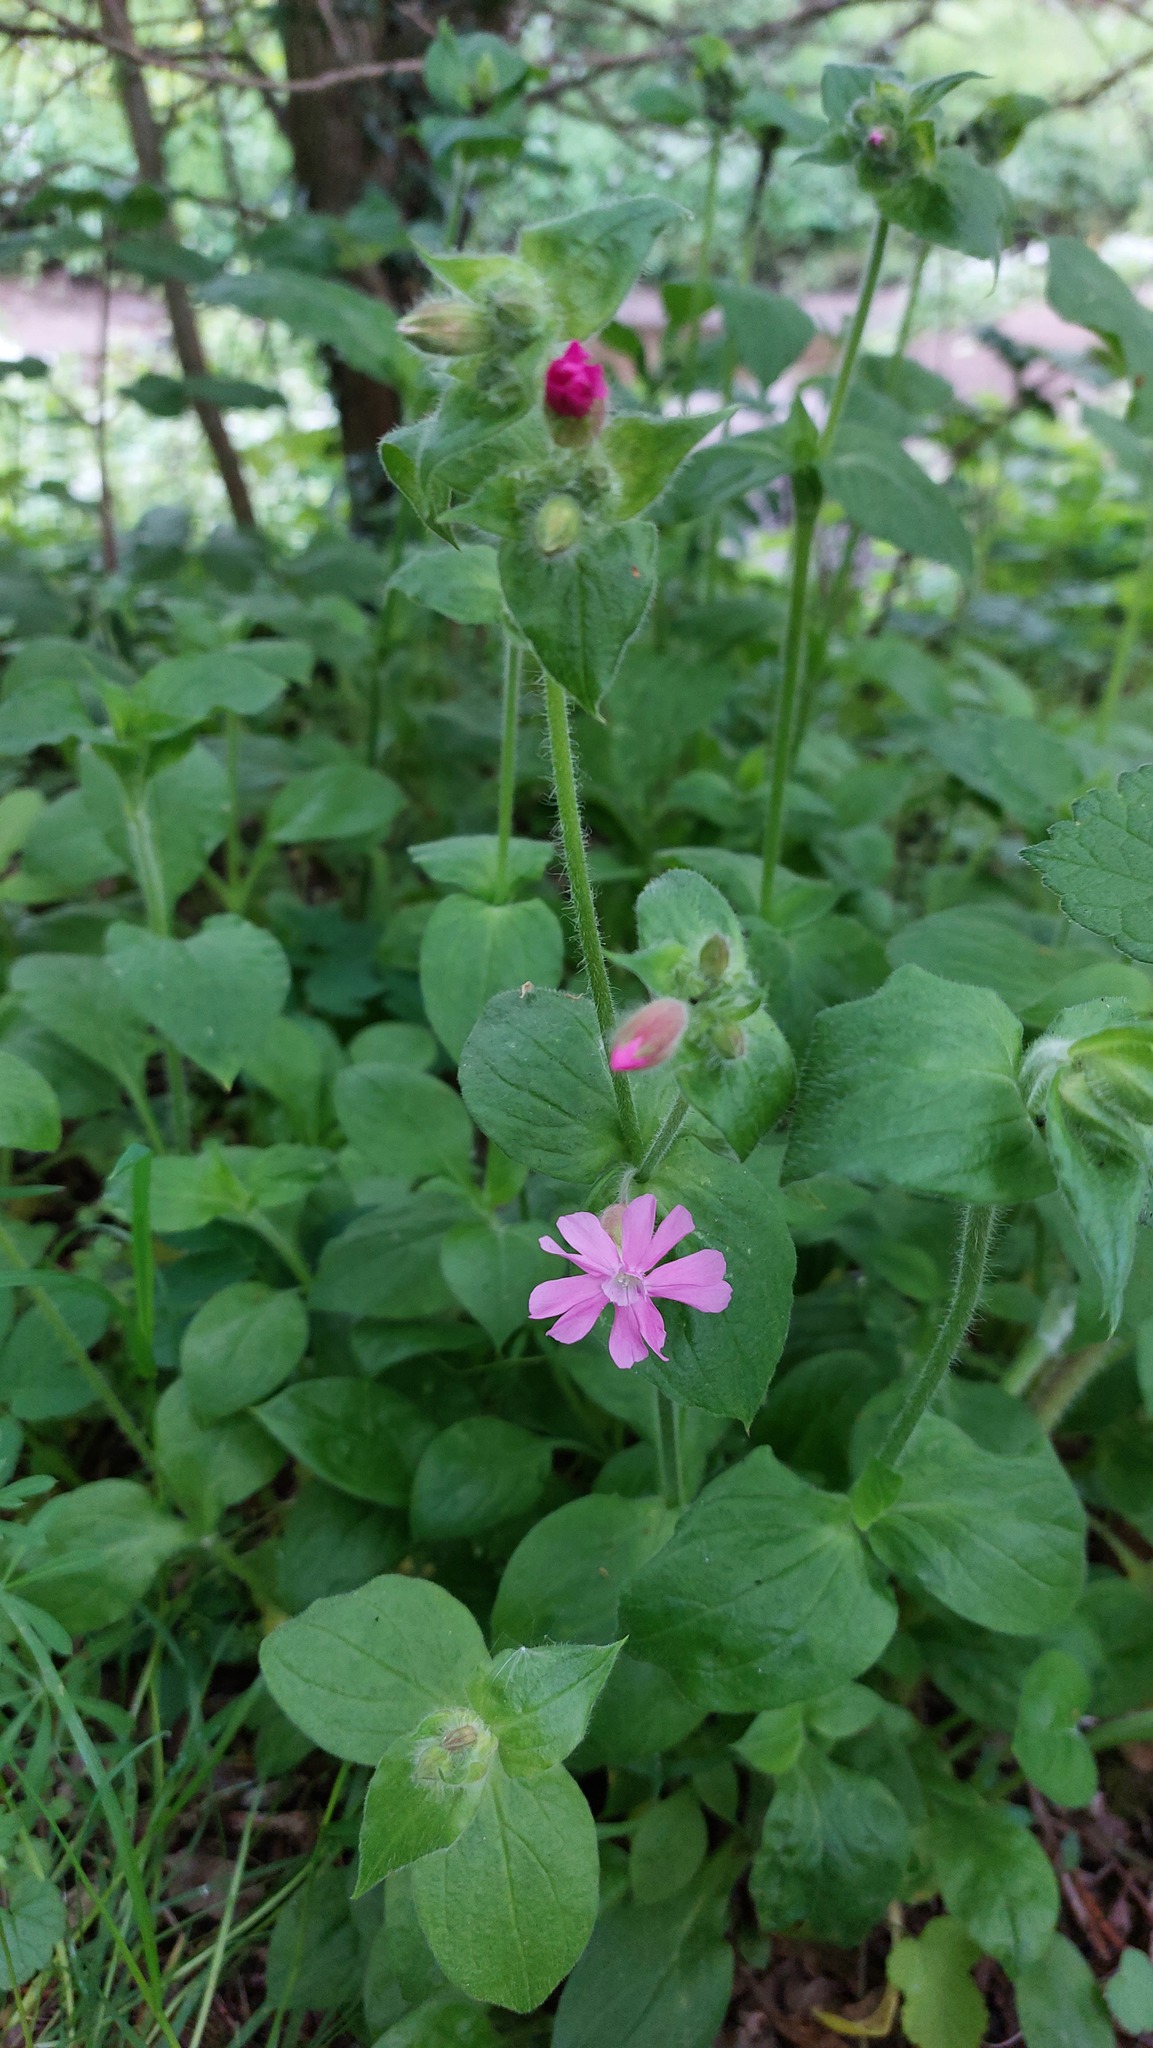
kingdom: Plantae
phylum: Tracheophyta
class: Magnoliopsida
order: Caryophyllales
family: Caryophyllaceae
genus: Silene
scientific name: Silene dioica
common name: Red campion
